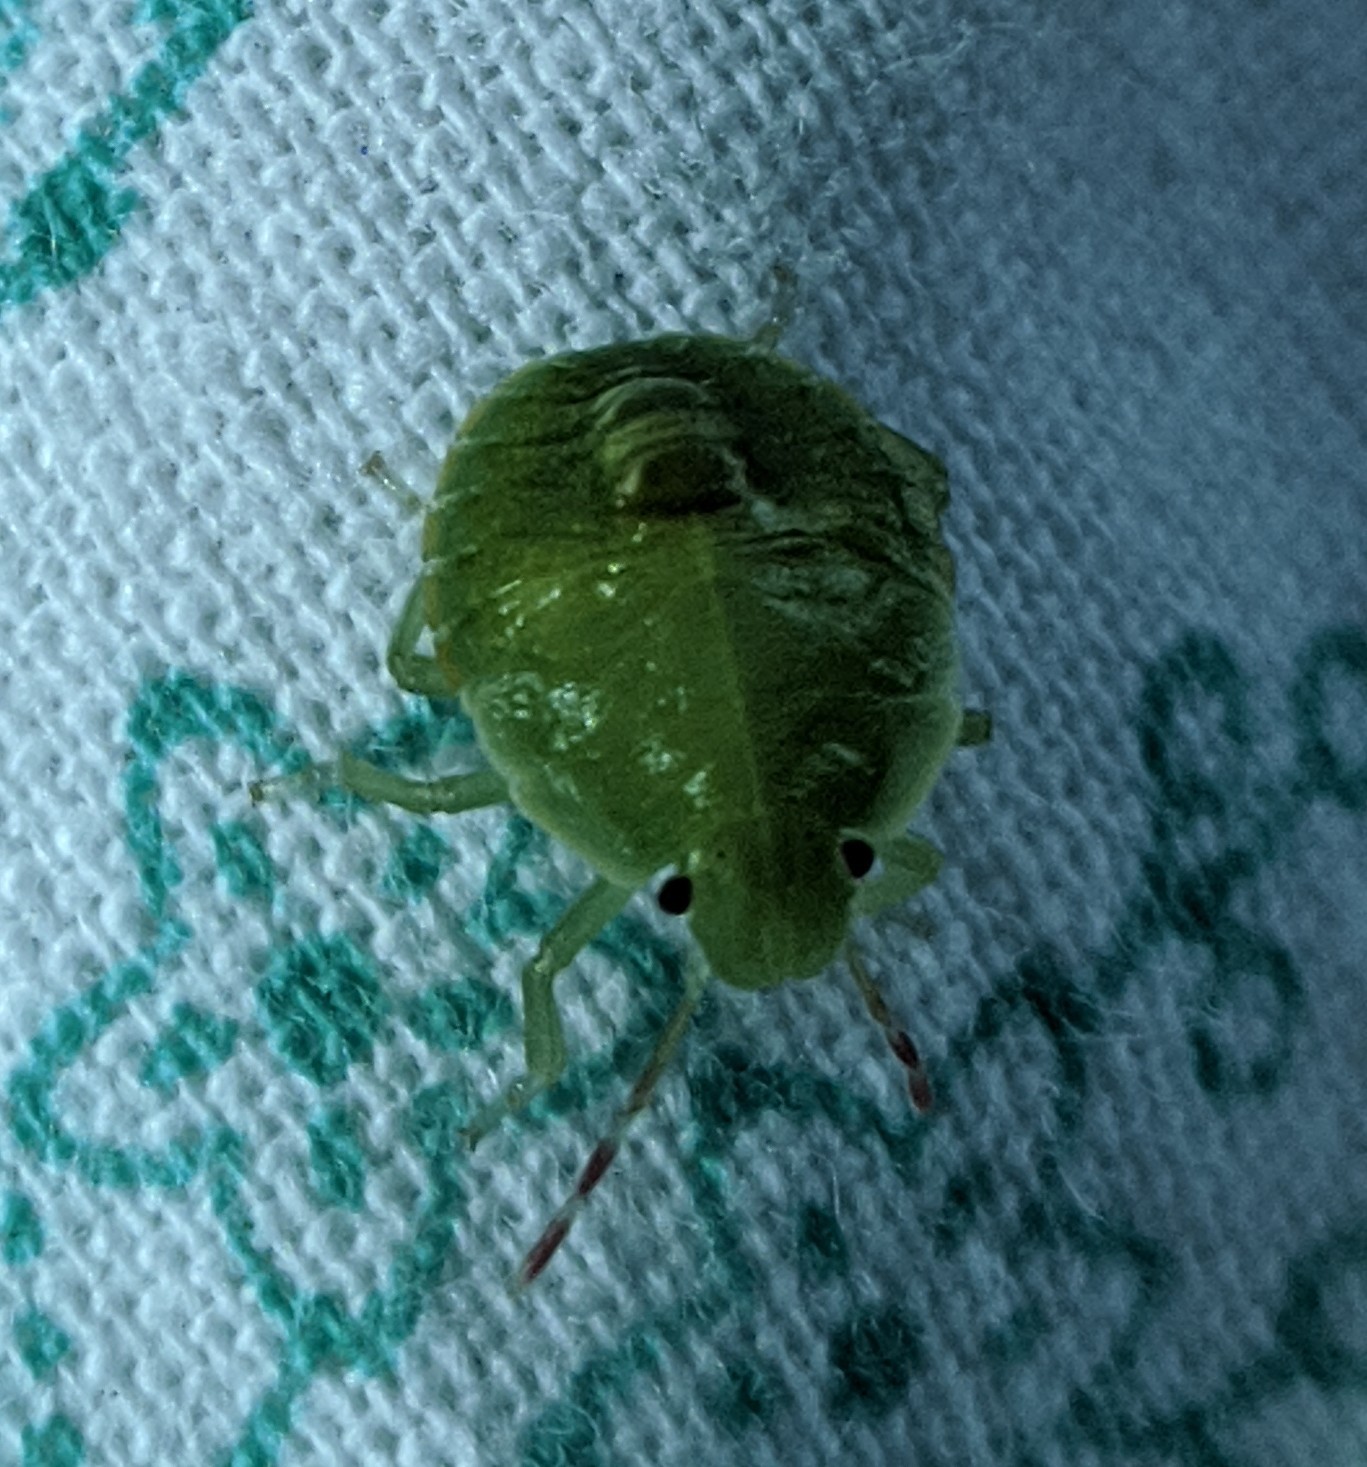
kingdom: Animalia
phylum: Arthropoda
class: Insecta
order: Hemiptera
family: Pentatomidae
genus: Palomena
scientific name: Palomena prasina
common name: Green shieldbug
